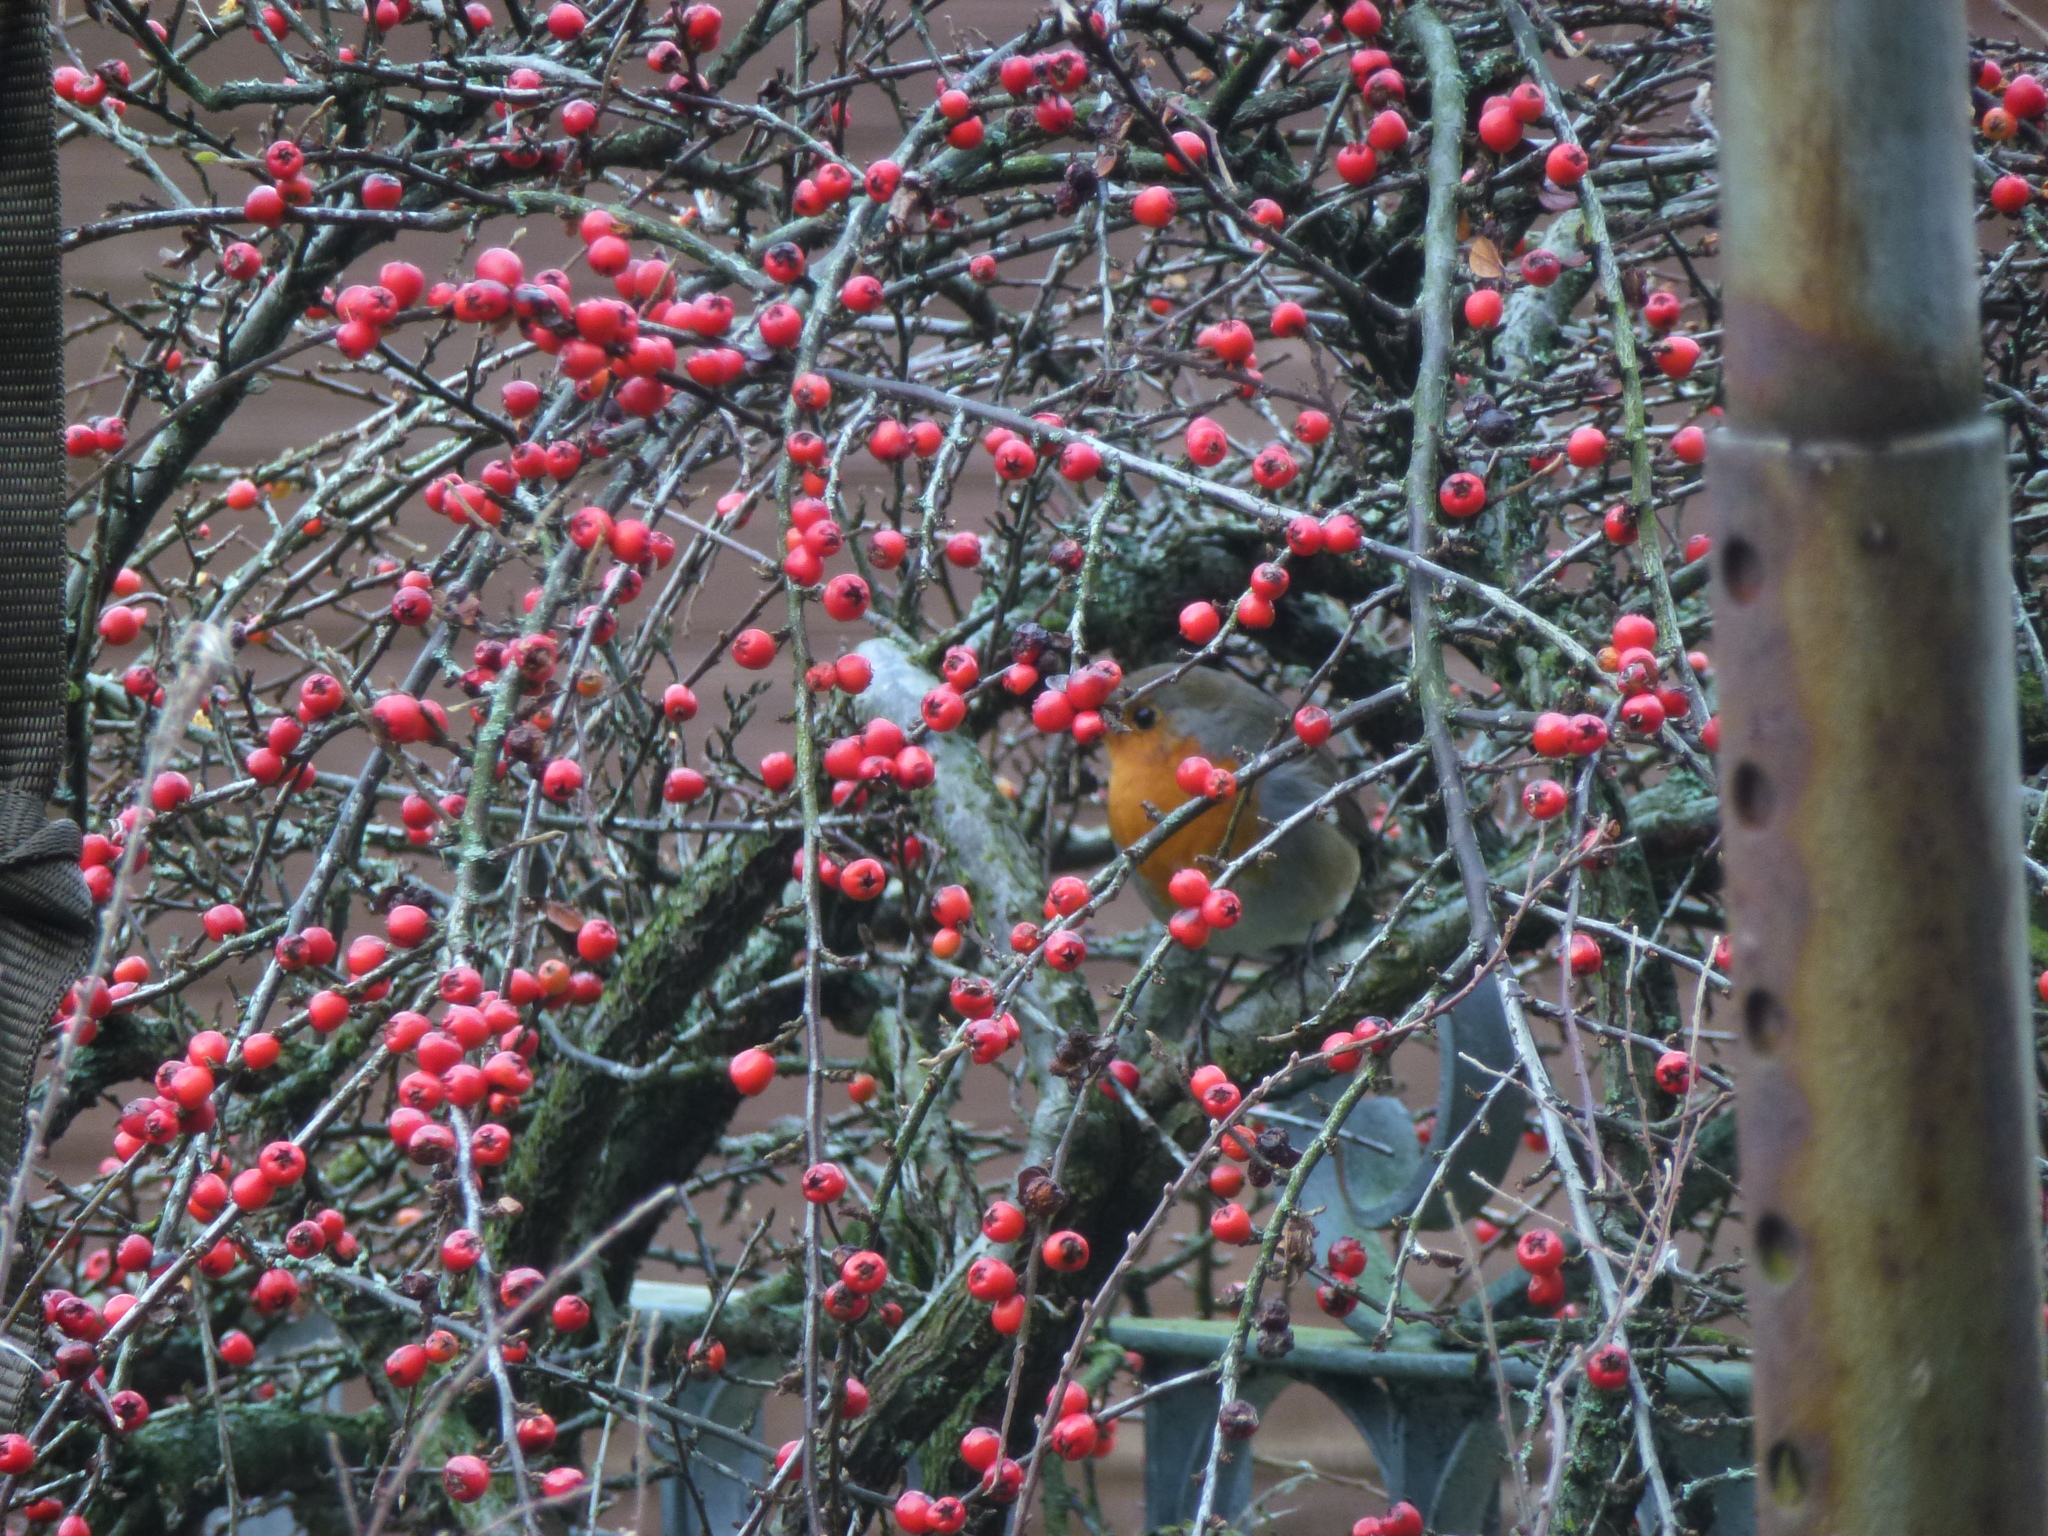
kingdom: Animalia
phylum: Chordata
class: Aves
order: Passeriformes
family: Muscicapidae
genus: Erithacus
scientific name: Erithacus rubecula
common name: European robin
